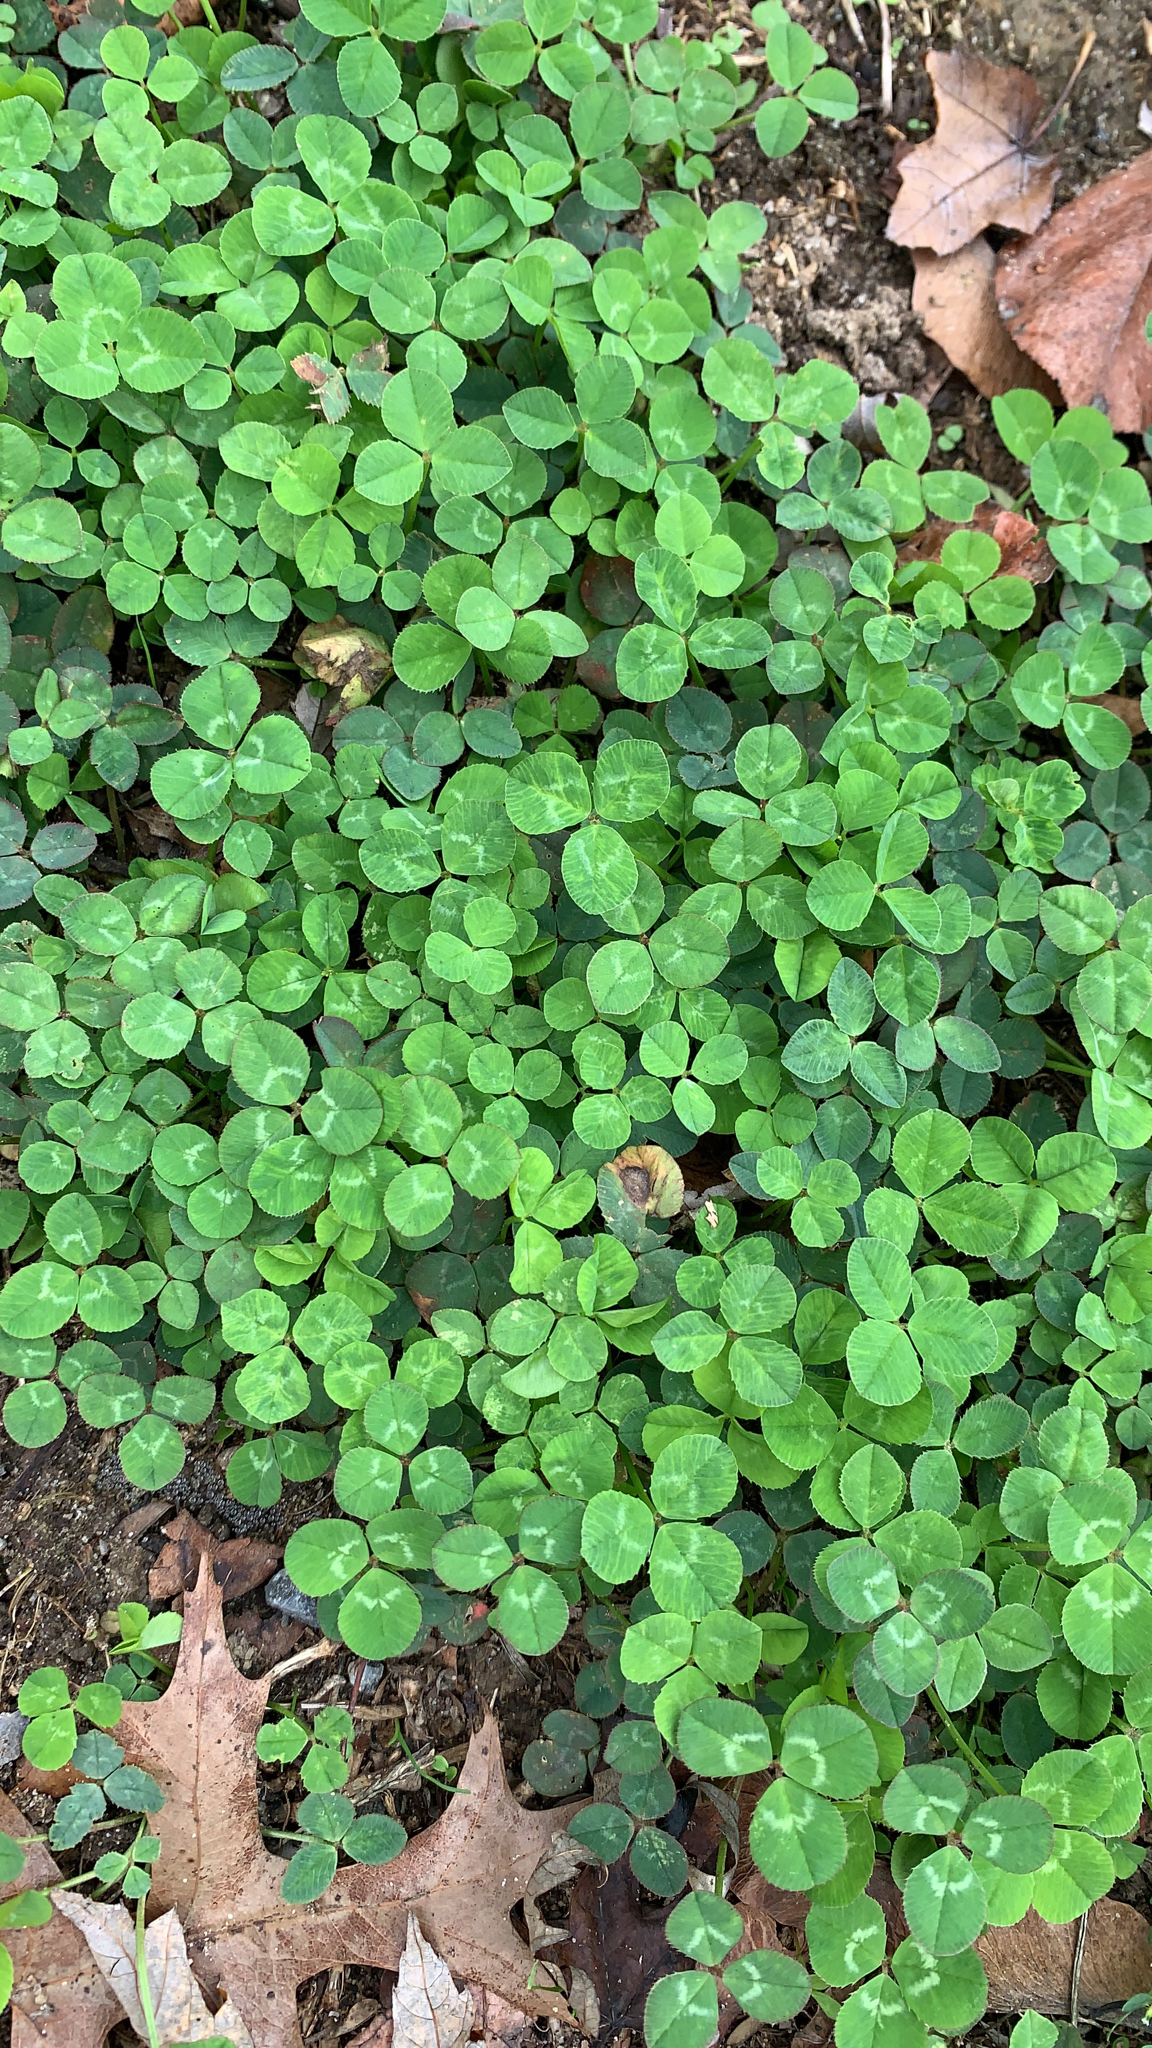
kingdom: Plantae
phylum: Tracheophyta
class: Magnoliopsida
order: Fabales
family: Fabaceae
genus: Trifolium
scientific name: Trifolium repens
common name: White clover
